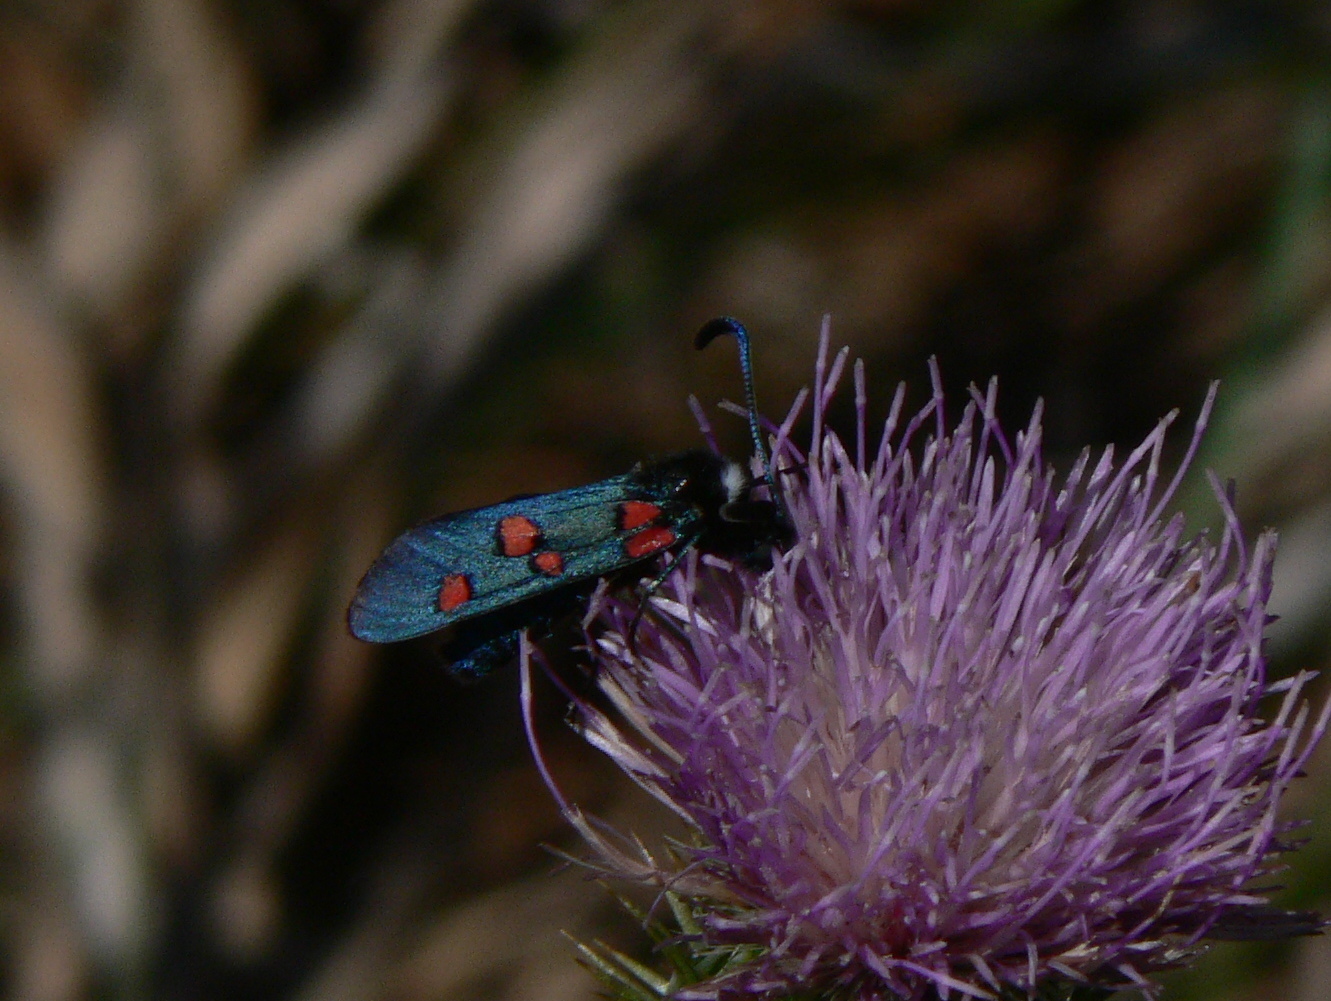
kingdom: Animalia
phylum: Arthropoda
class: Insecta
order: Lepidoptera
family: Zygaenidae
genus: Zygaena
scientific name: Zygaena lavandulae
